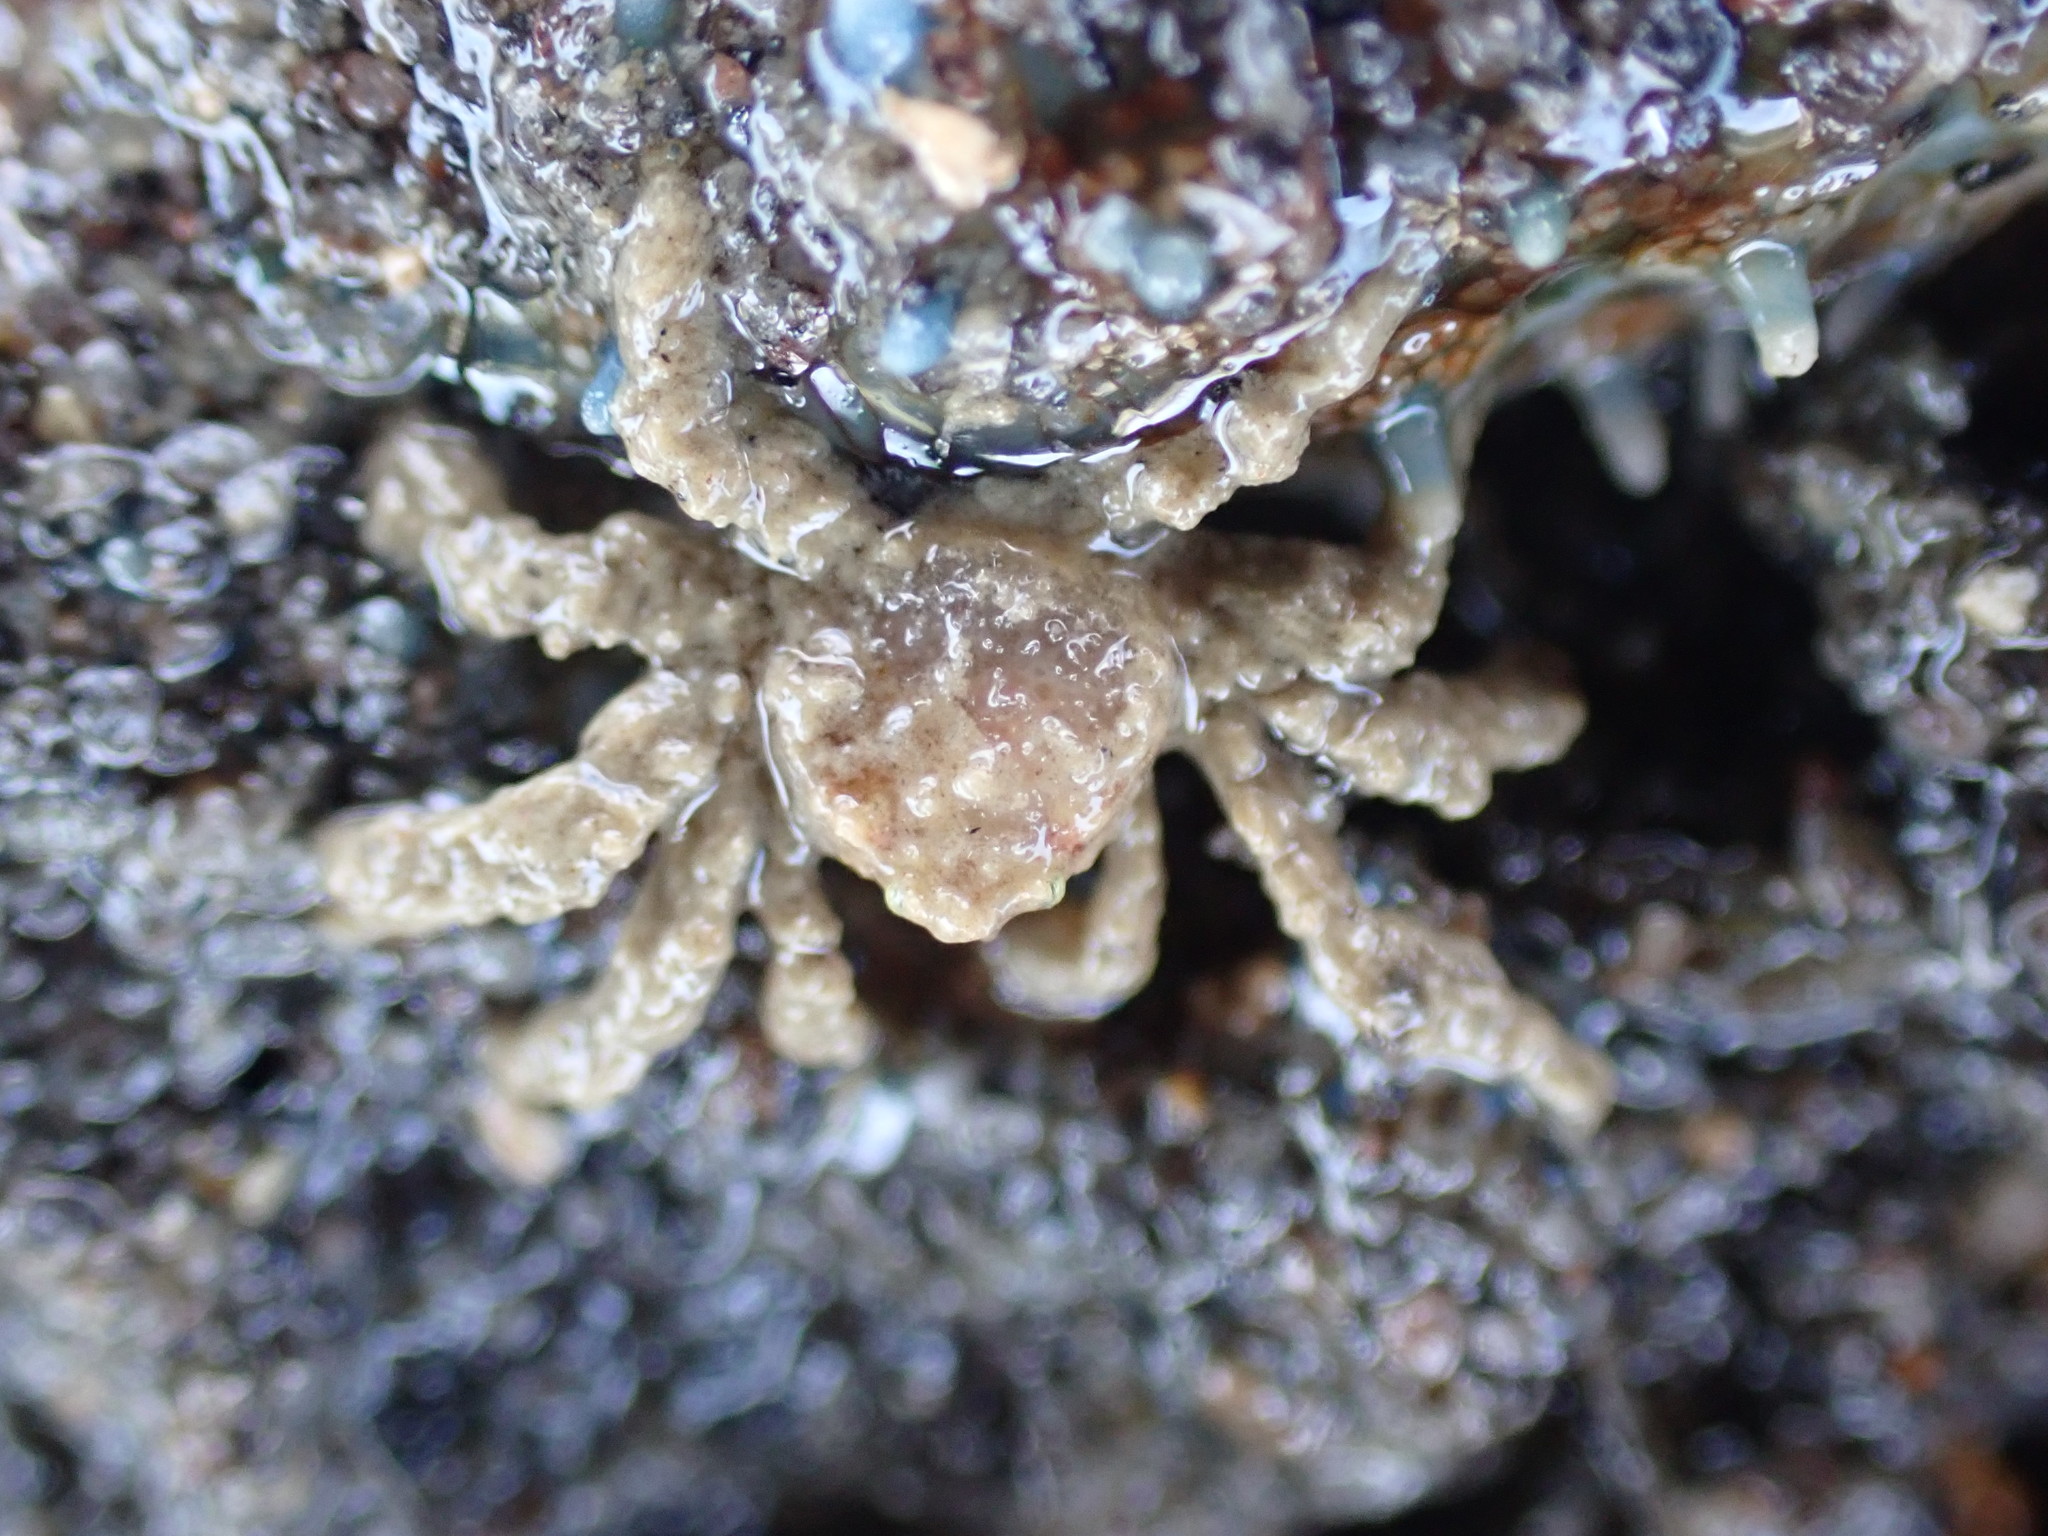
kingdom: Animalia
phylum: Arthropoda
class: Malacostraca
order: Decapoda
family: Hymenosomatidae
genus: Neohymenicus
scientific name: Neohymenicus pubescens
